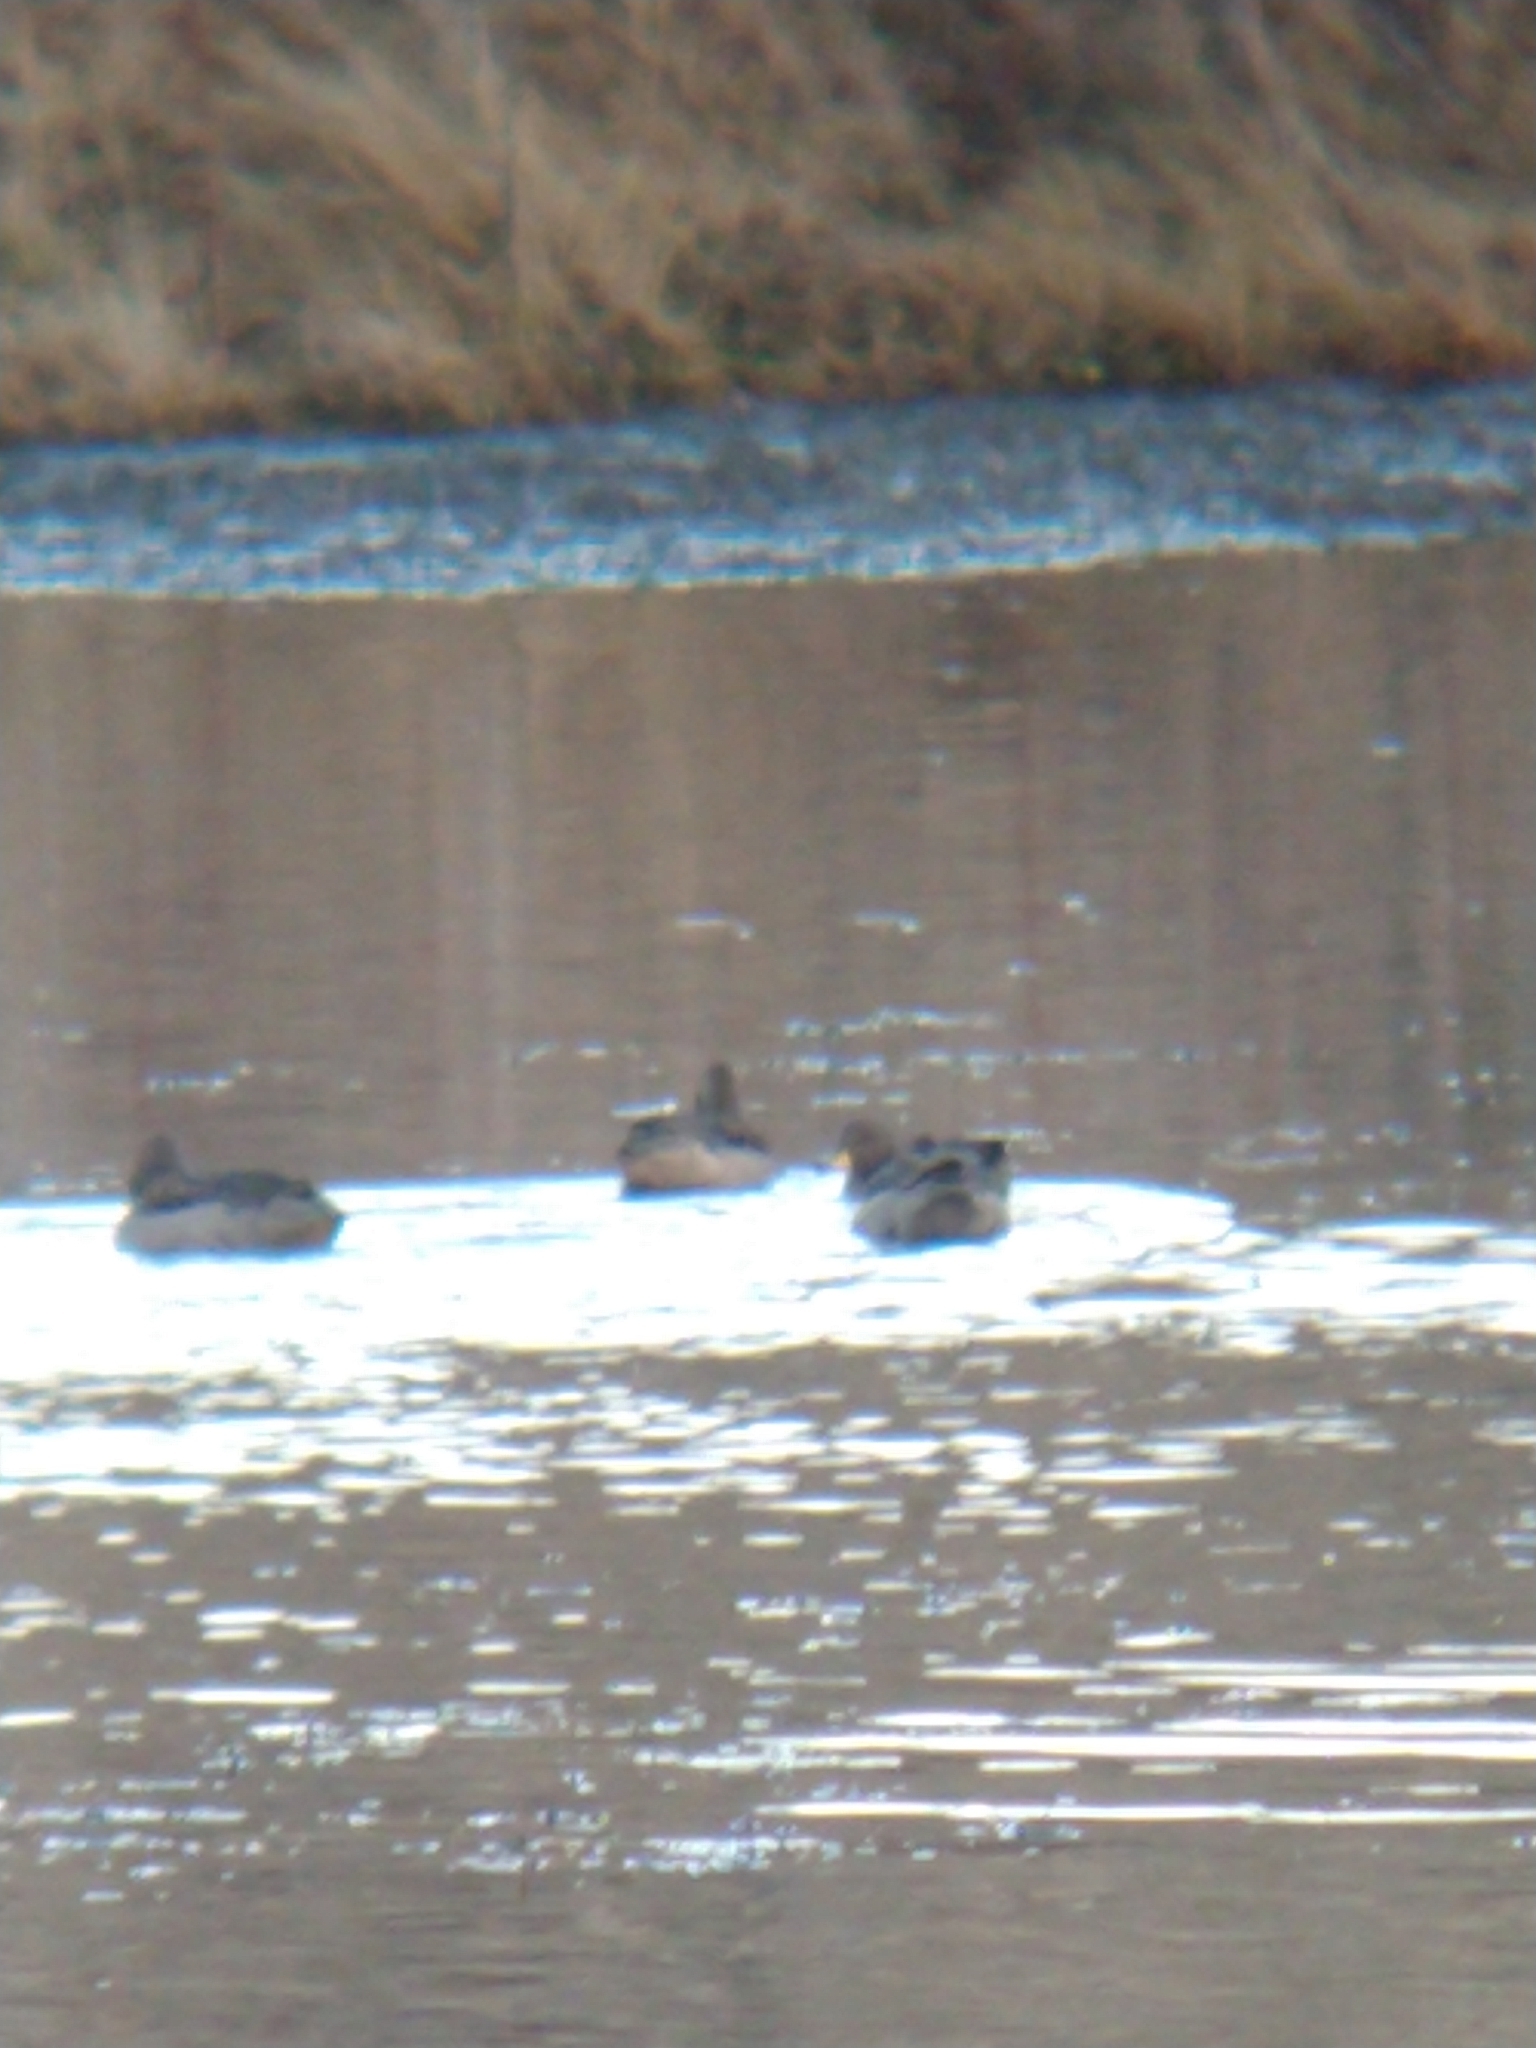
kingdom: Animalia
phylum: Chordata
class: Aves
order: Anseriformes
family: Anatidae
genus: Anas
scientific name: Anas flavirostris
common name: Yellow-billed teal
